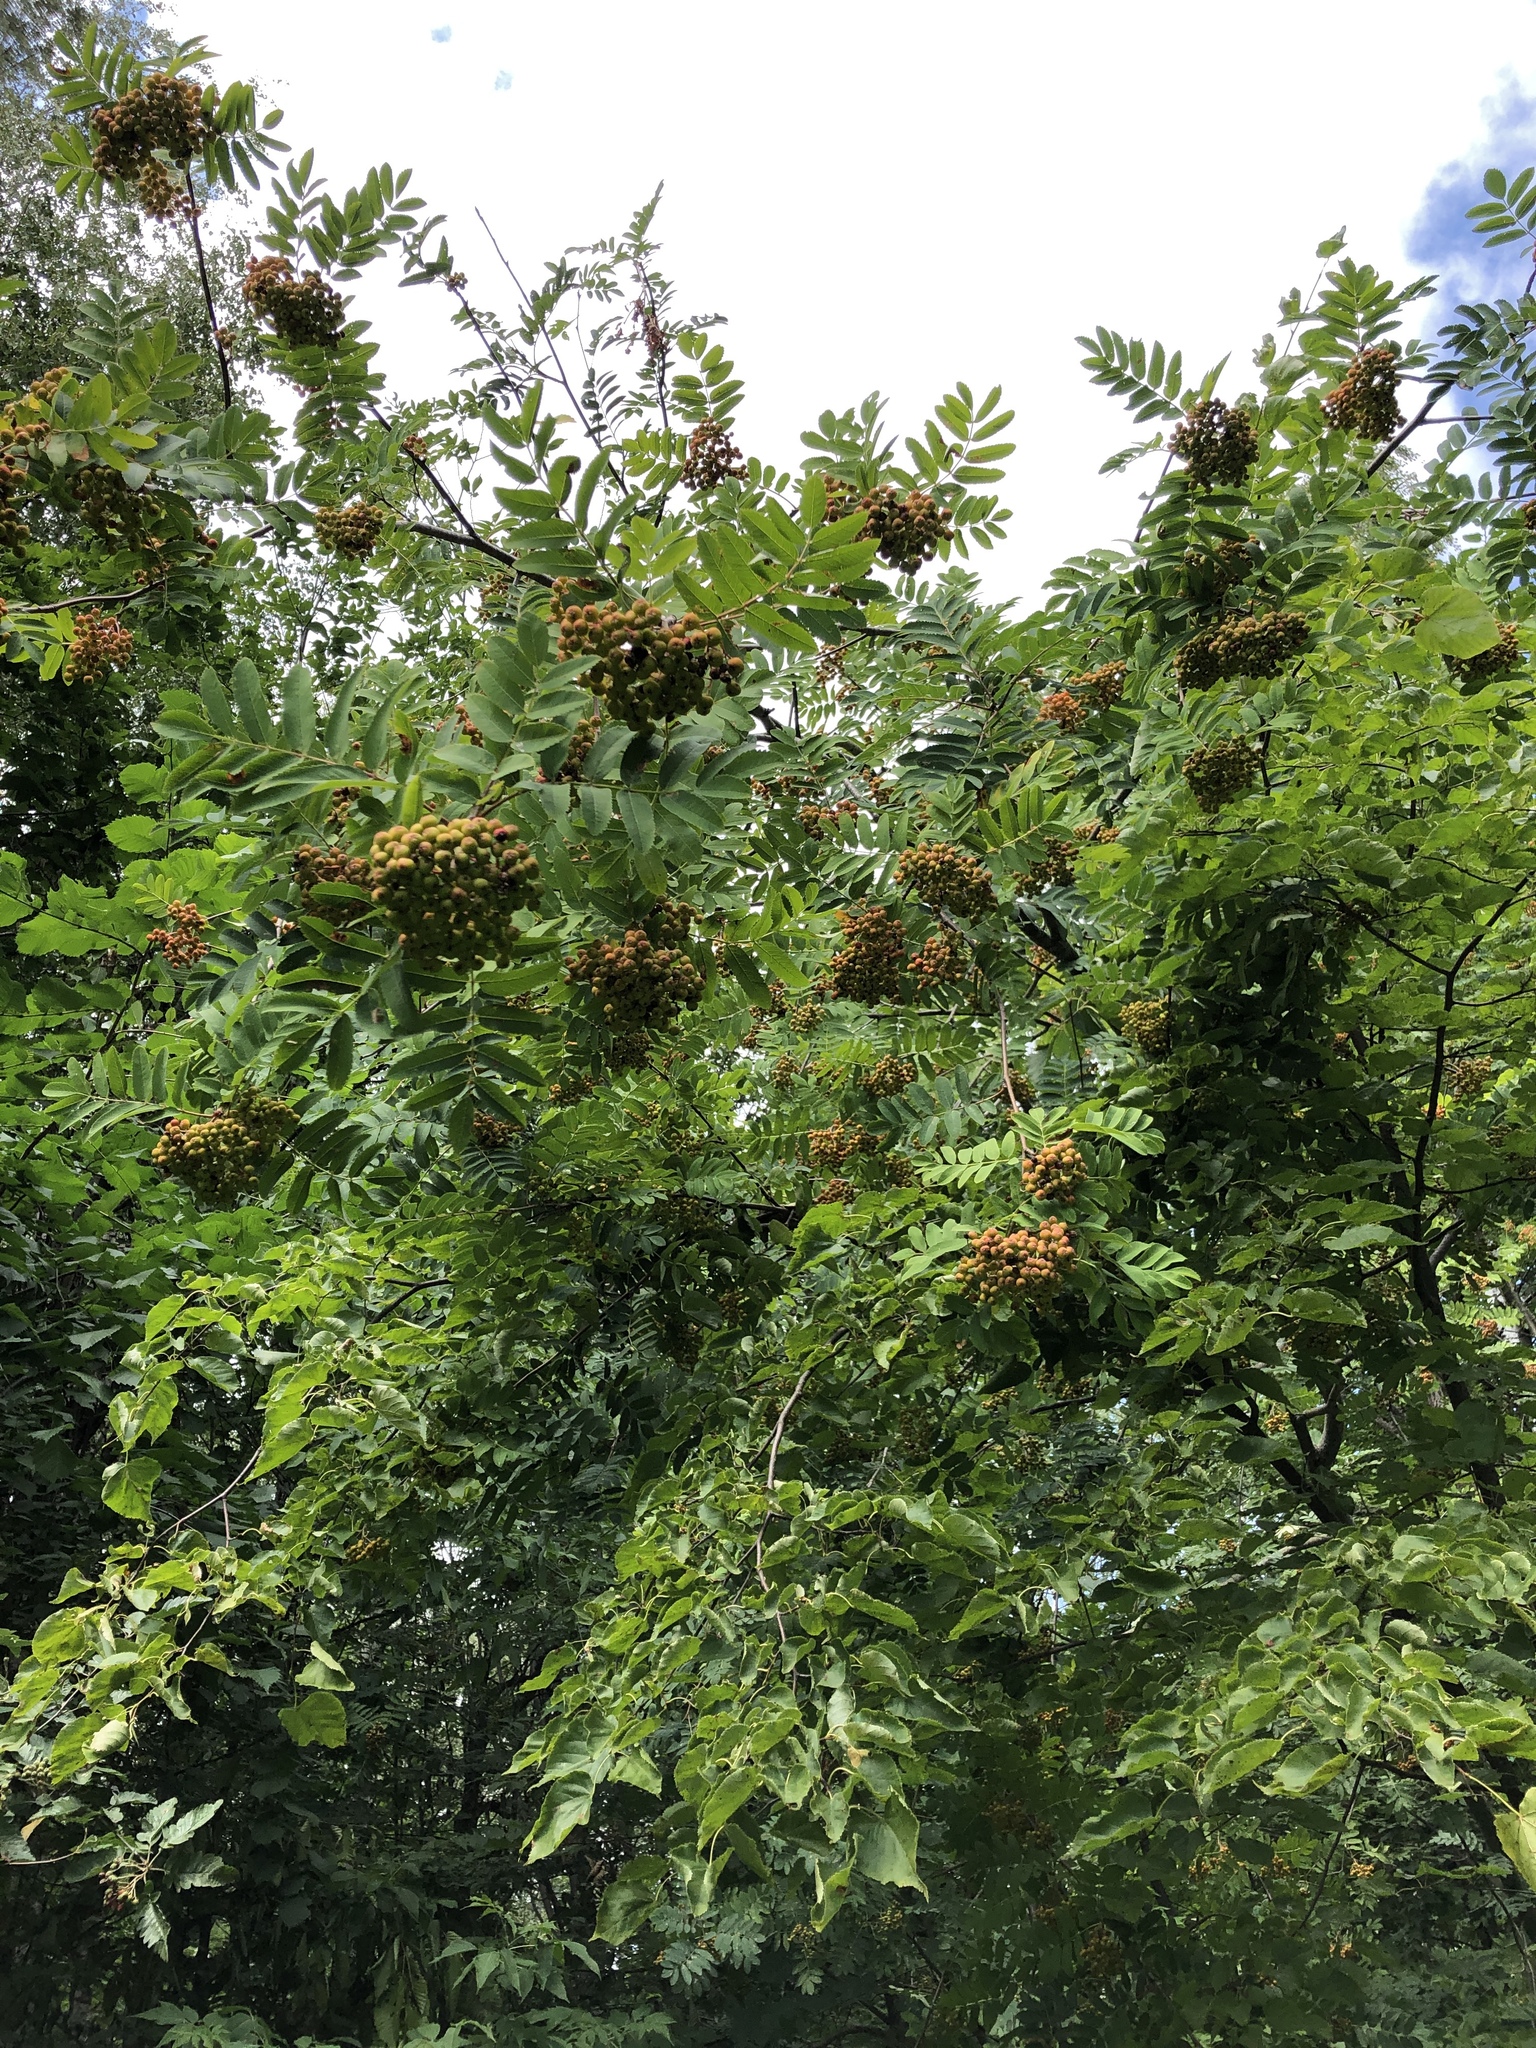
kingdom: Plantae
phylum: Tracheophyta
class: Magnoliopsida
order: Rosales
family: Rosaceae
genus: Sorbus
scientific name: Sorbus aucuparia
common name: Rowan
